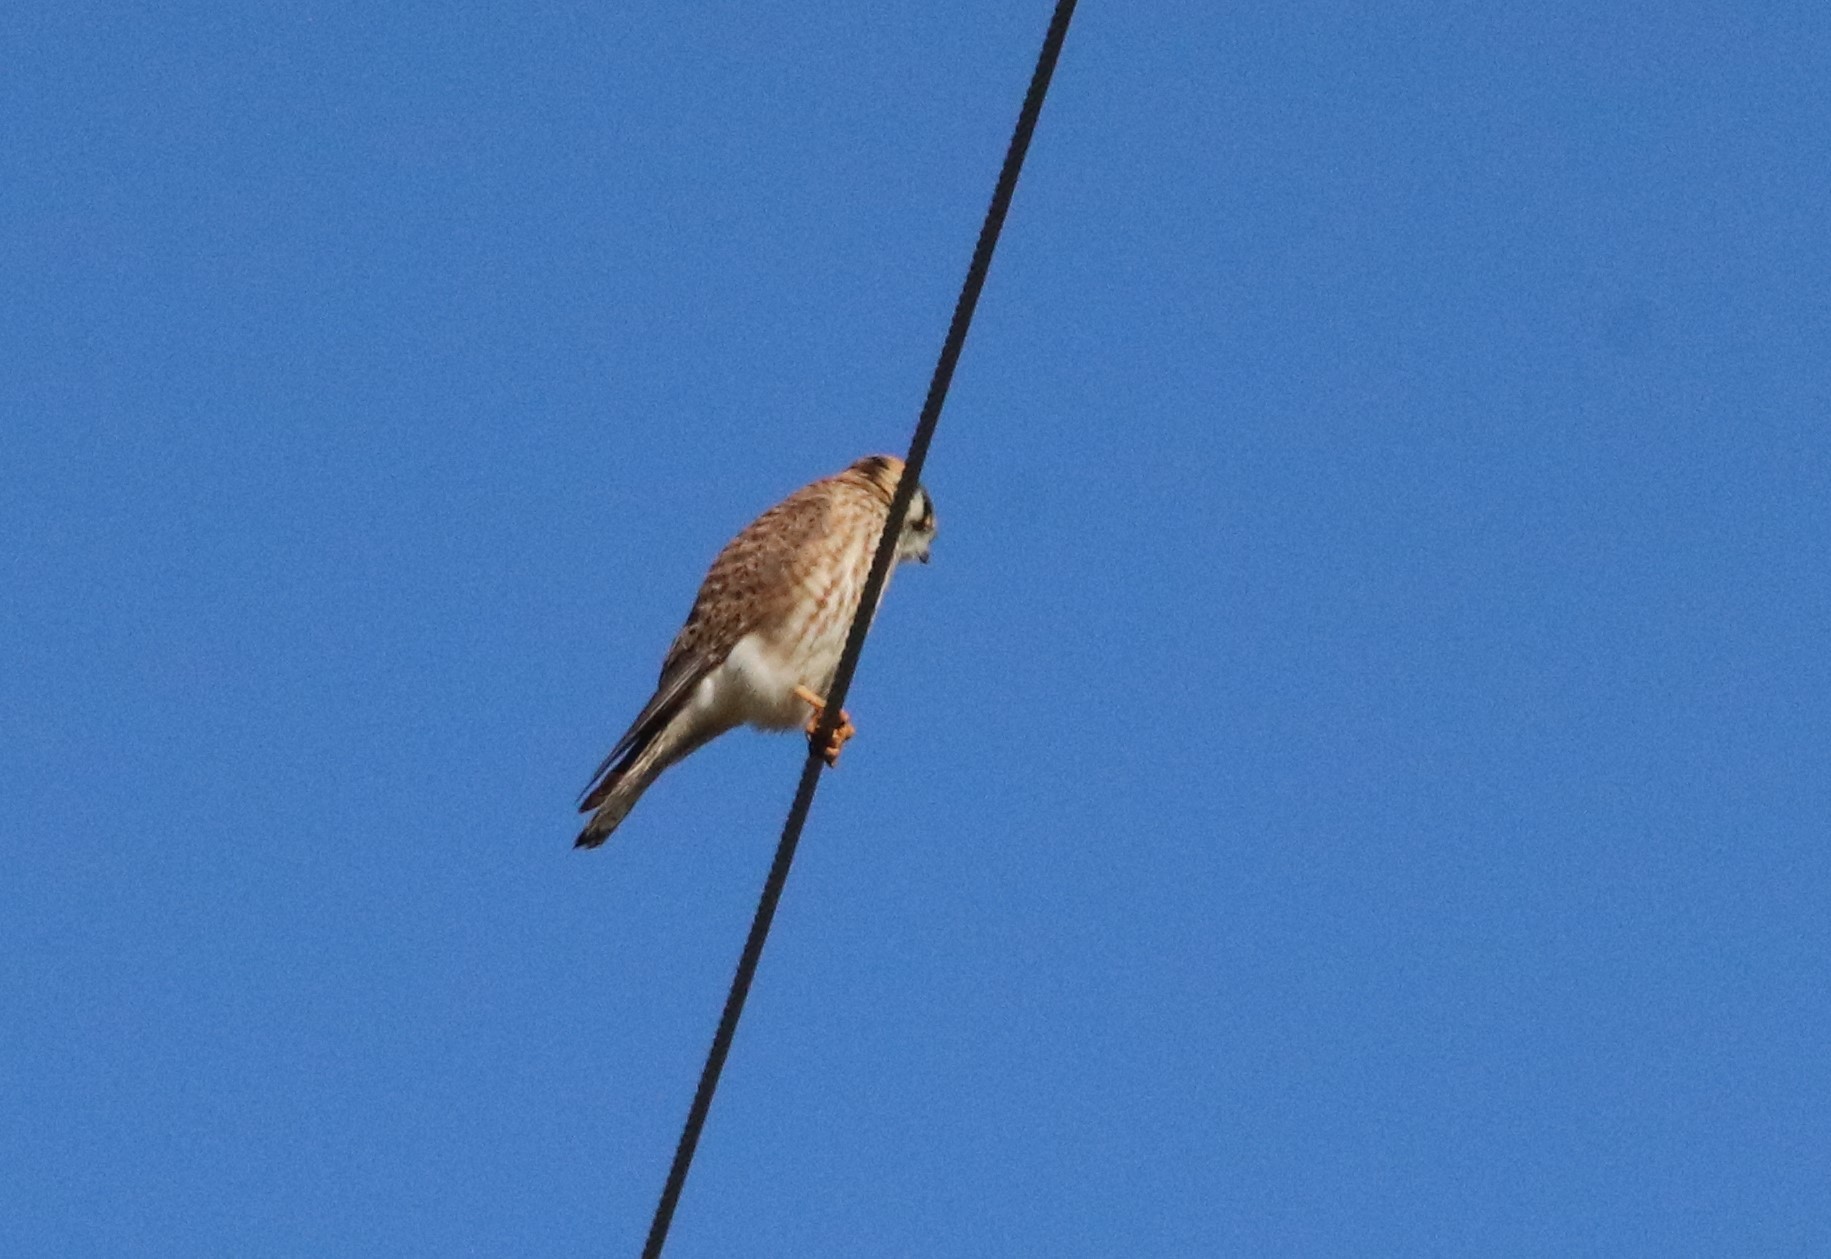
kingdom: Animalia
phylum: Chordata
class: Aves
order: Falconiformes
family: Falconidae
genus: Falco
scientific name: Falco sparverius
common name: American kestrel
